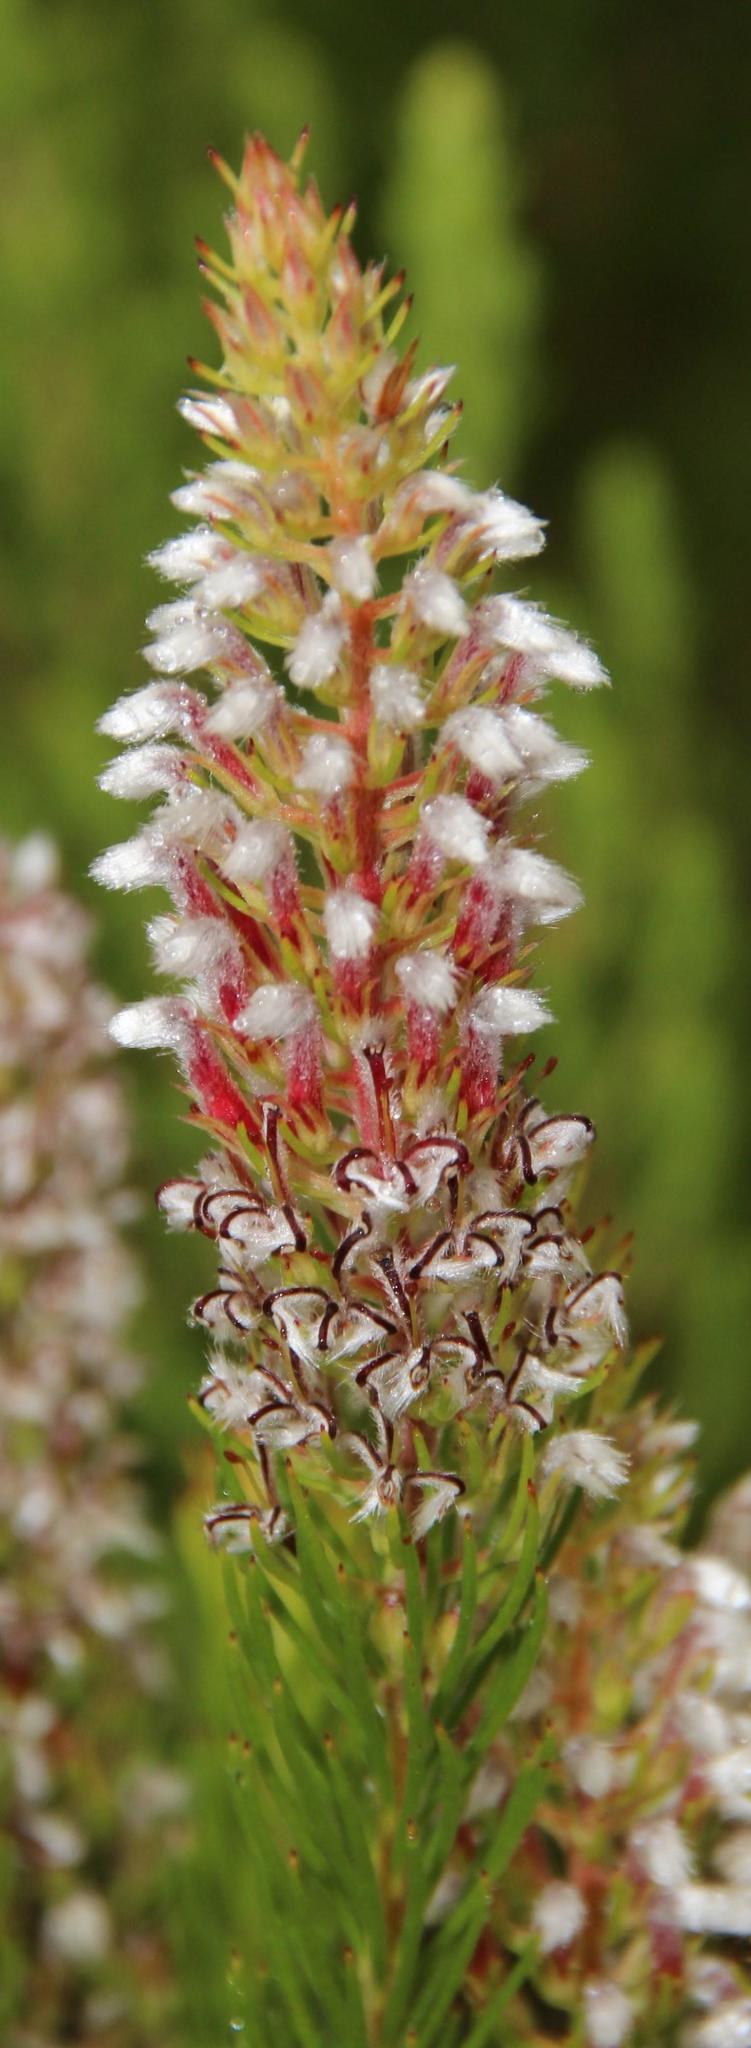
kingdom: Plantae
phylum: Tracheophyta
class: Magnoliopsida
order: Proteales
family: Proteaceae
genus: Spatalla
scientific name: Spatalla parilis
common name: Spike spoon
